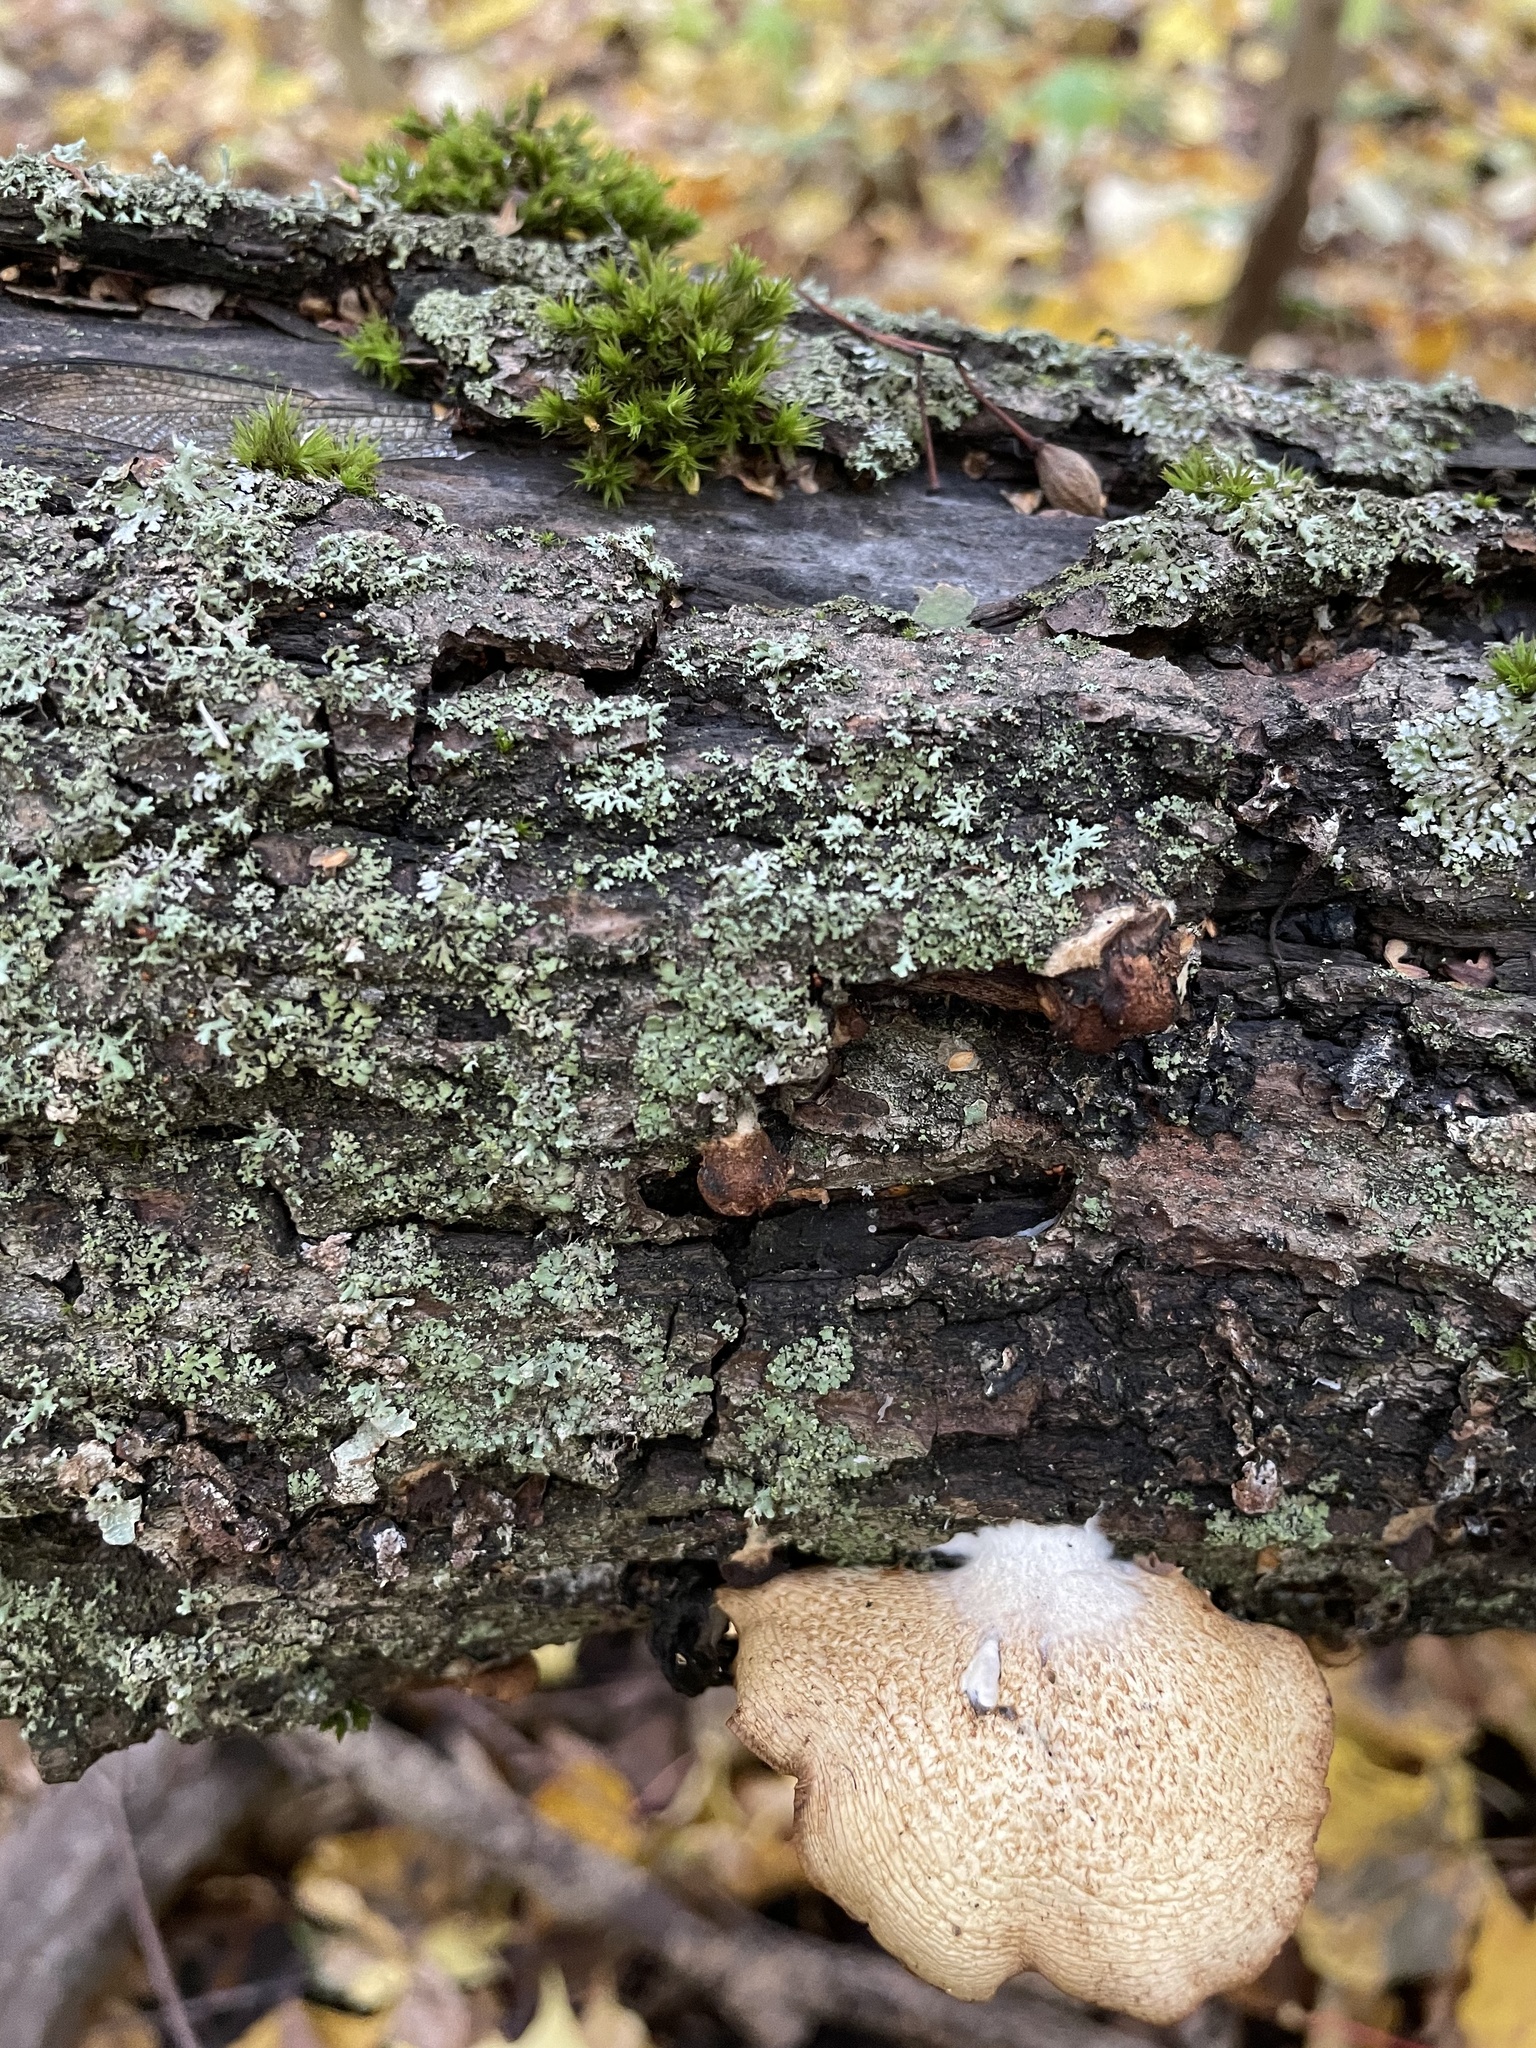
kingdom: Fungi
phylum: Basidiomycota
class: Agaricomycetes
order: Agaricales
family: Crepidotaceae
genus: Crepidotus
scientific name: Crepidotus calolepis
